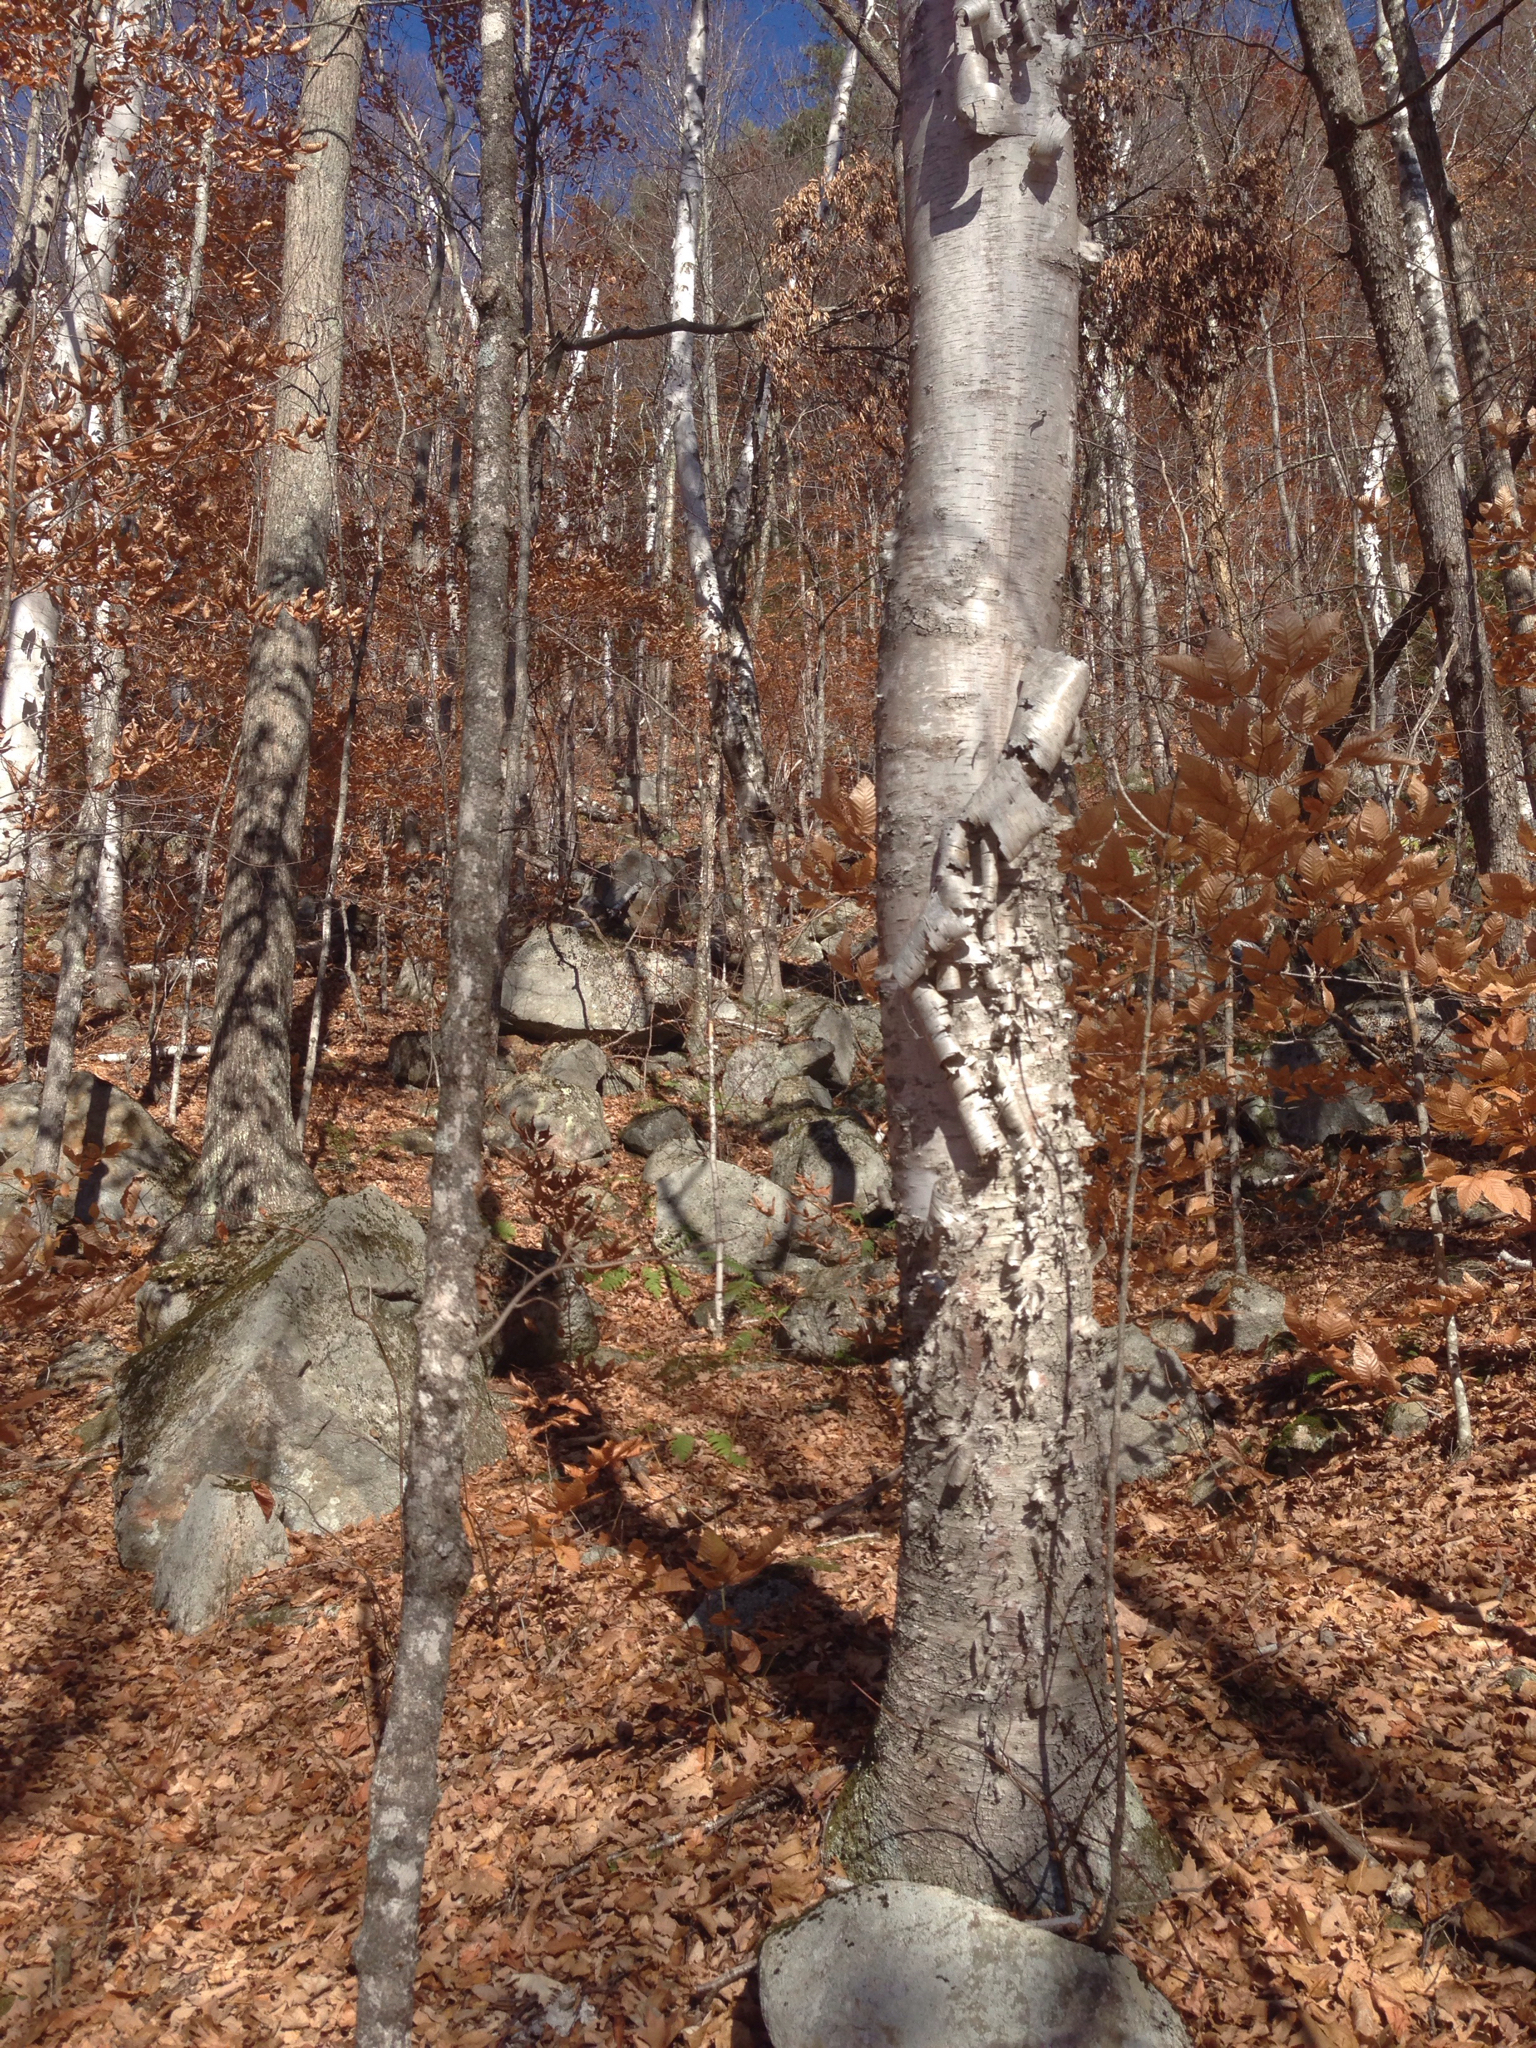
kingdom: Plantae
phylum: Tracheophyta
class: Magnoliopsida
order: Fagales
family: Betulaceae
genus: Betula
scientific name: Betula papyrifera
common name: Paper birch
